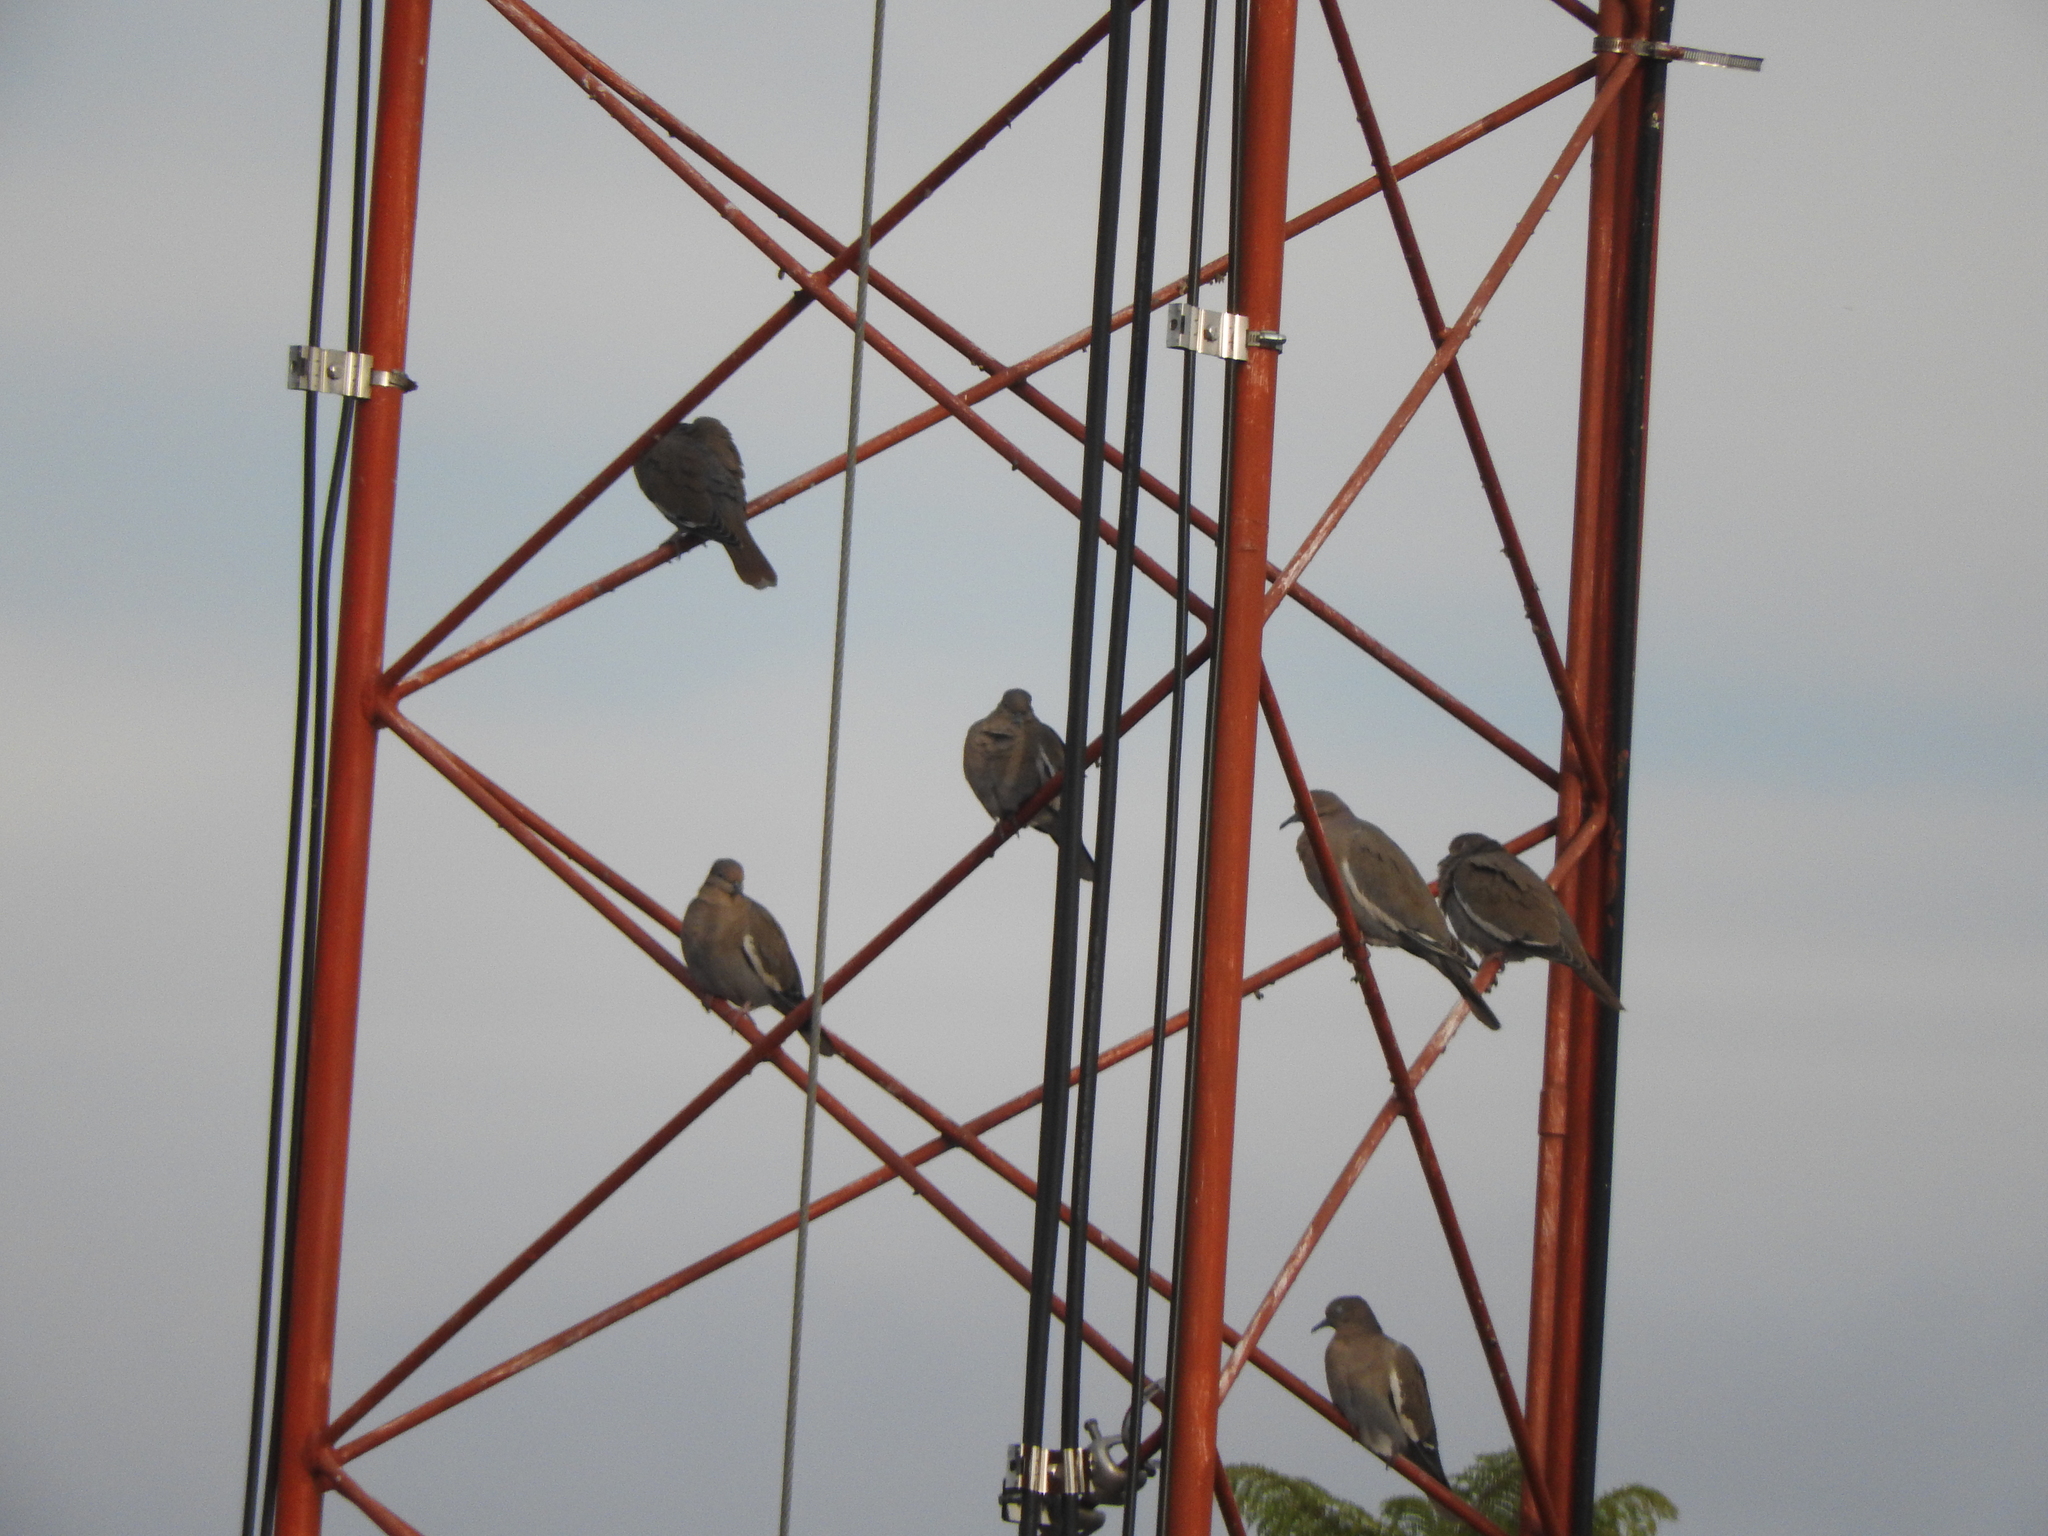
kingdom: Animalia
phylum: Chordata
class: Aves
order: Columbiformes
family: Columbidae
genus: Zenaida
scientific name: Zenaida asiatica
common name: White-winged dove
